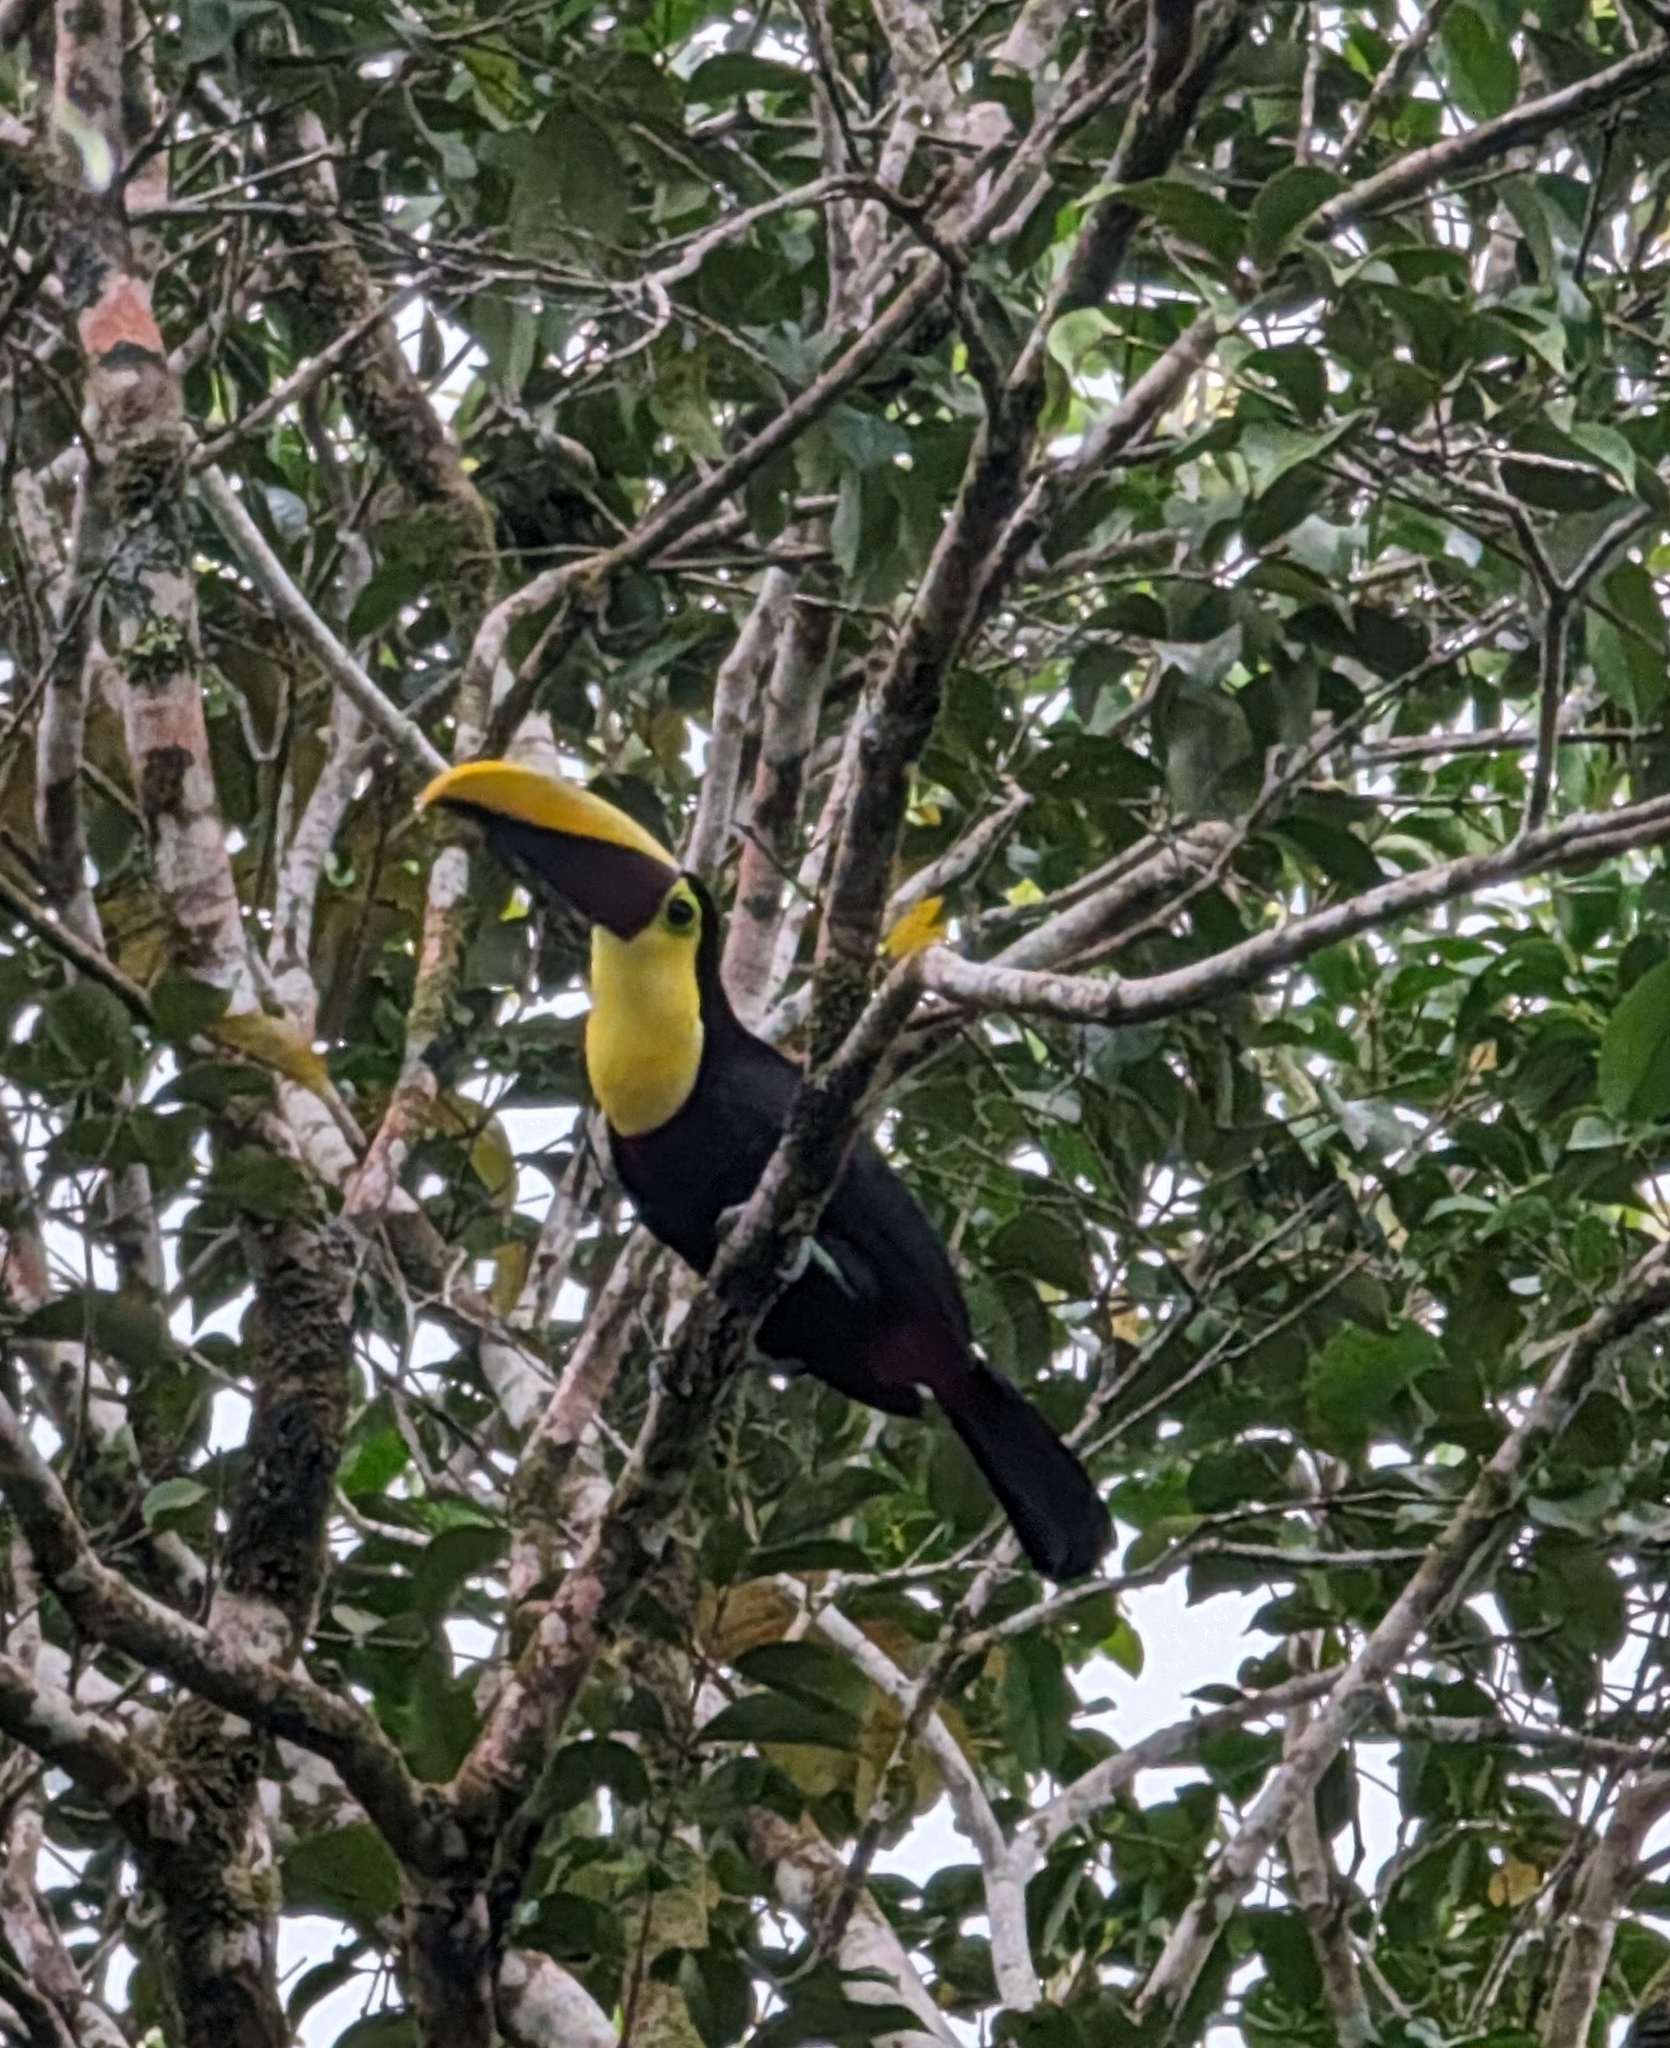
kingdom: Animalia
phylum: Chordata
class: Aves
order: Piciformes
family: Ramphastidae
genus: Ramphastos
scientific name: Ramphastos ambiguus
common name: Yellow-throated toucan
